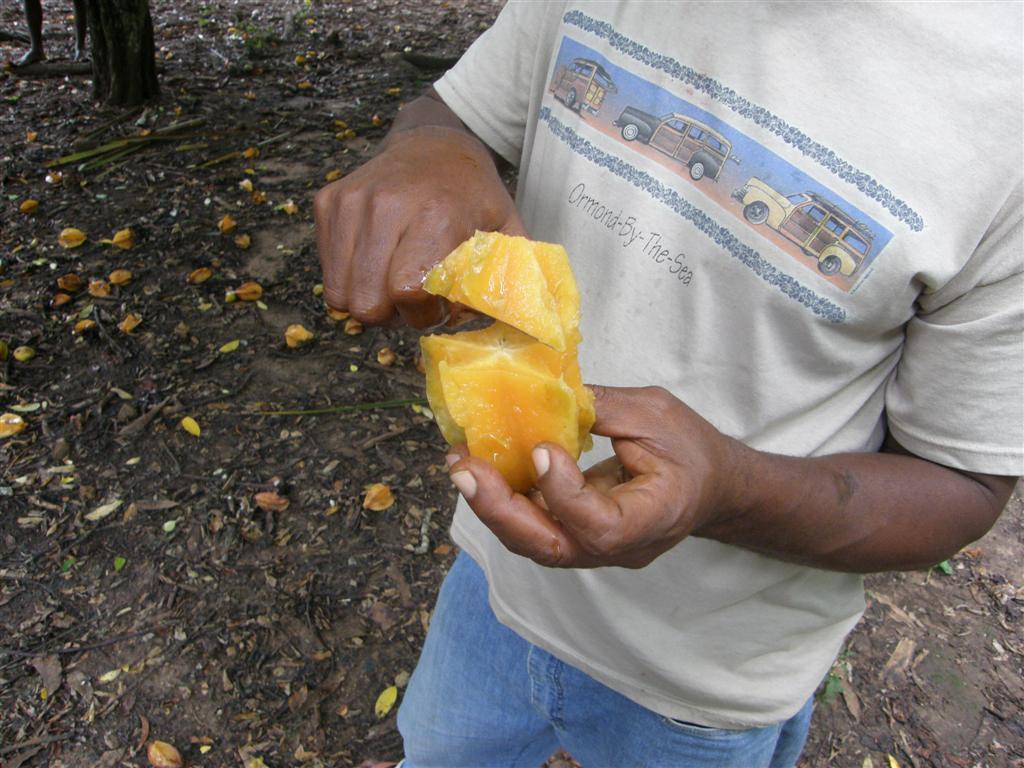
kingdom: Plantae
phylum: Tracheophyta
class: Magnoliopsida
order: Oxalidales
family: Oxalidaceae
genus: Averrhoa
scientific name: Averrhoa carambola
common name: Blimbing
